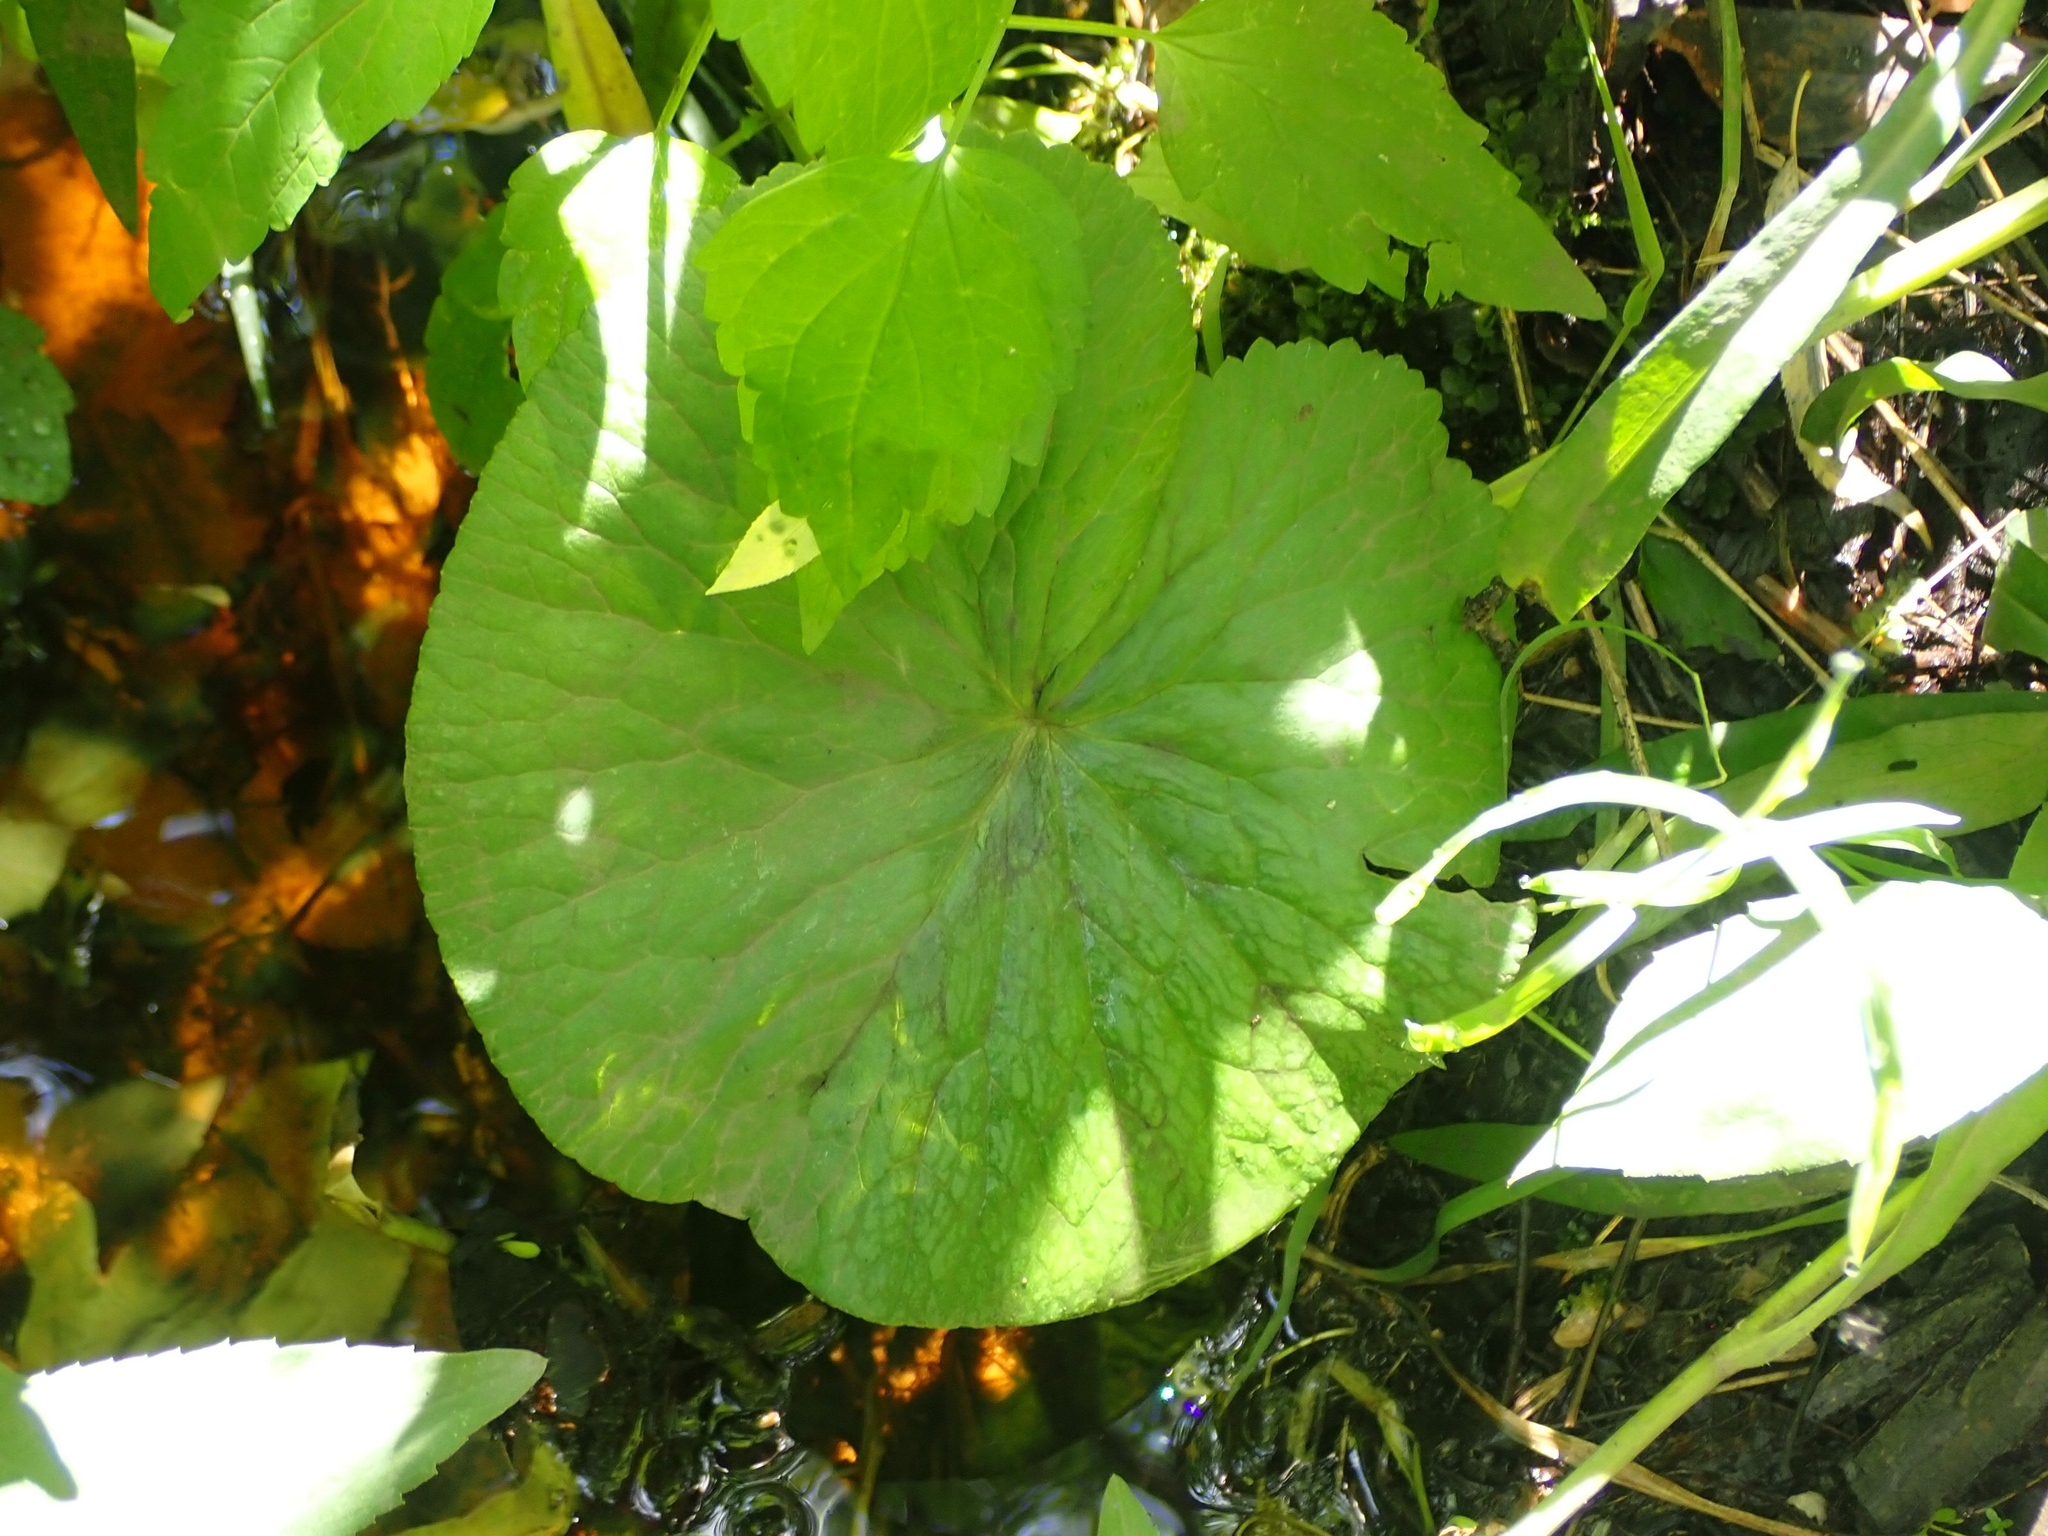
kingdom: Plantae
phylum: Tracheophyta
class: Magnoliopsida
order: Ranunculales
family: Ranunculaceae
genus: Caltha
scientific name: Caltha palustris
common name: Marsh marigold
